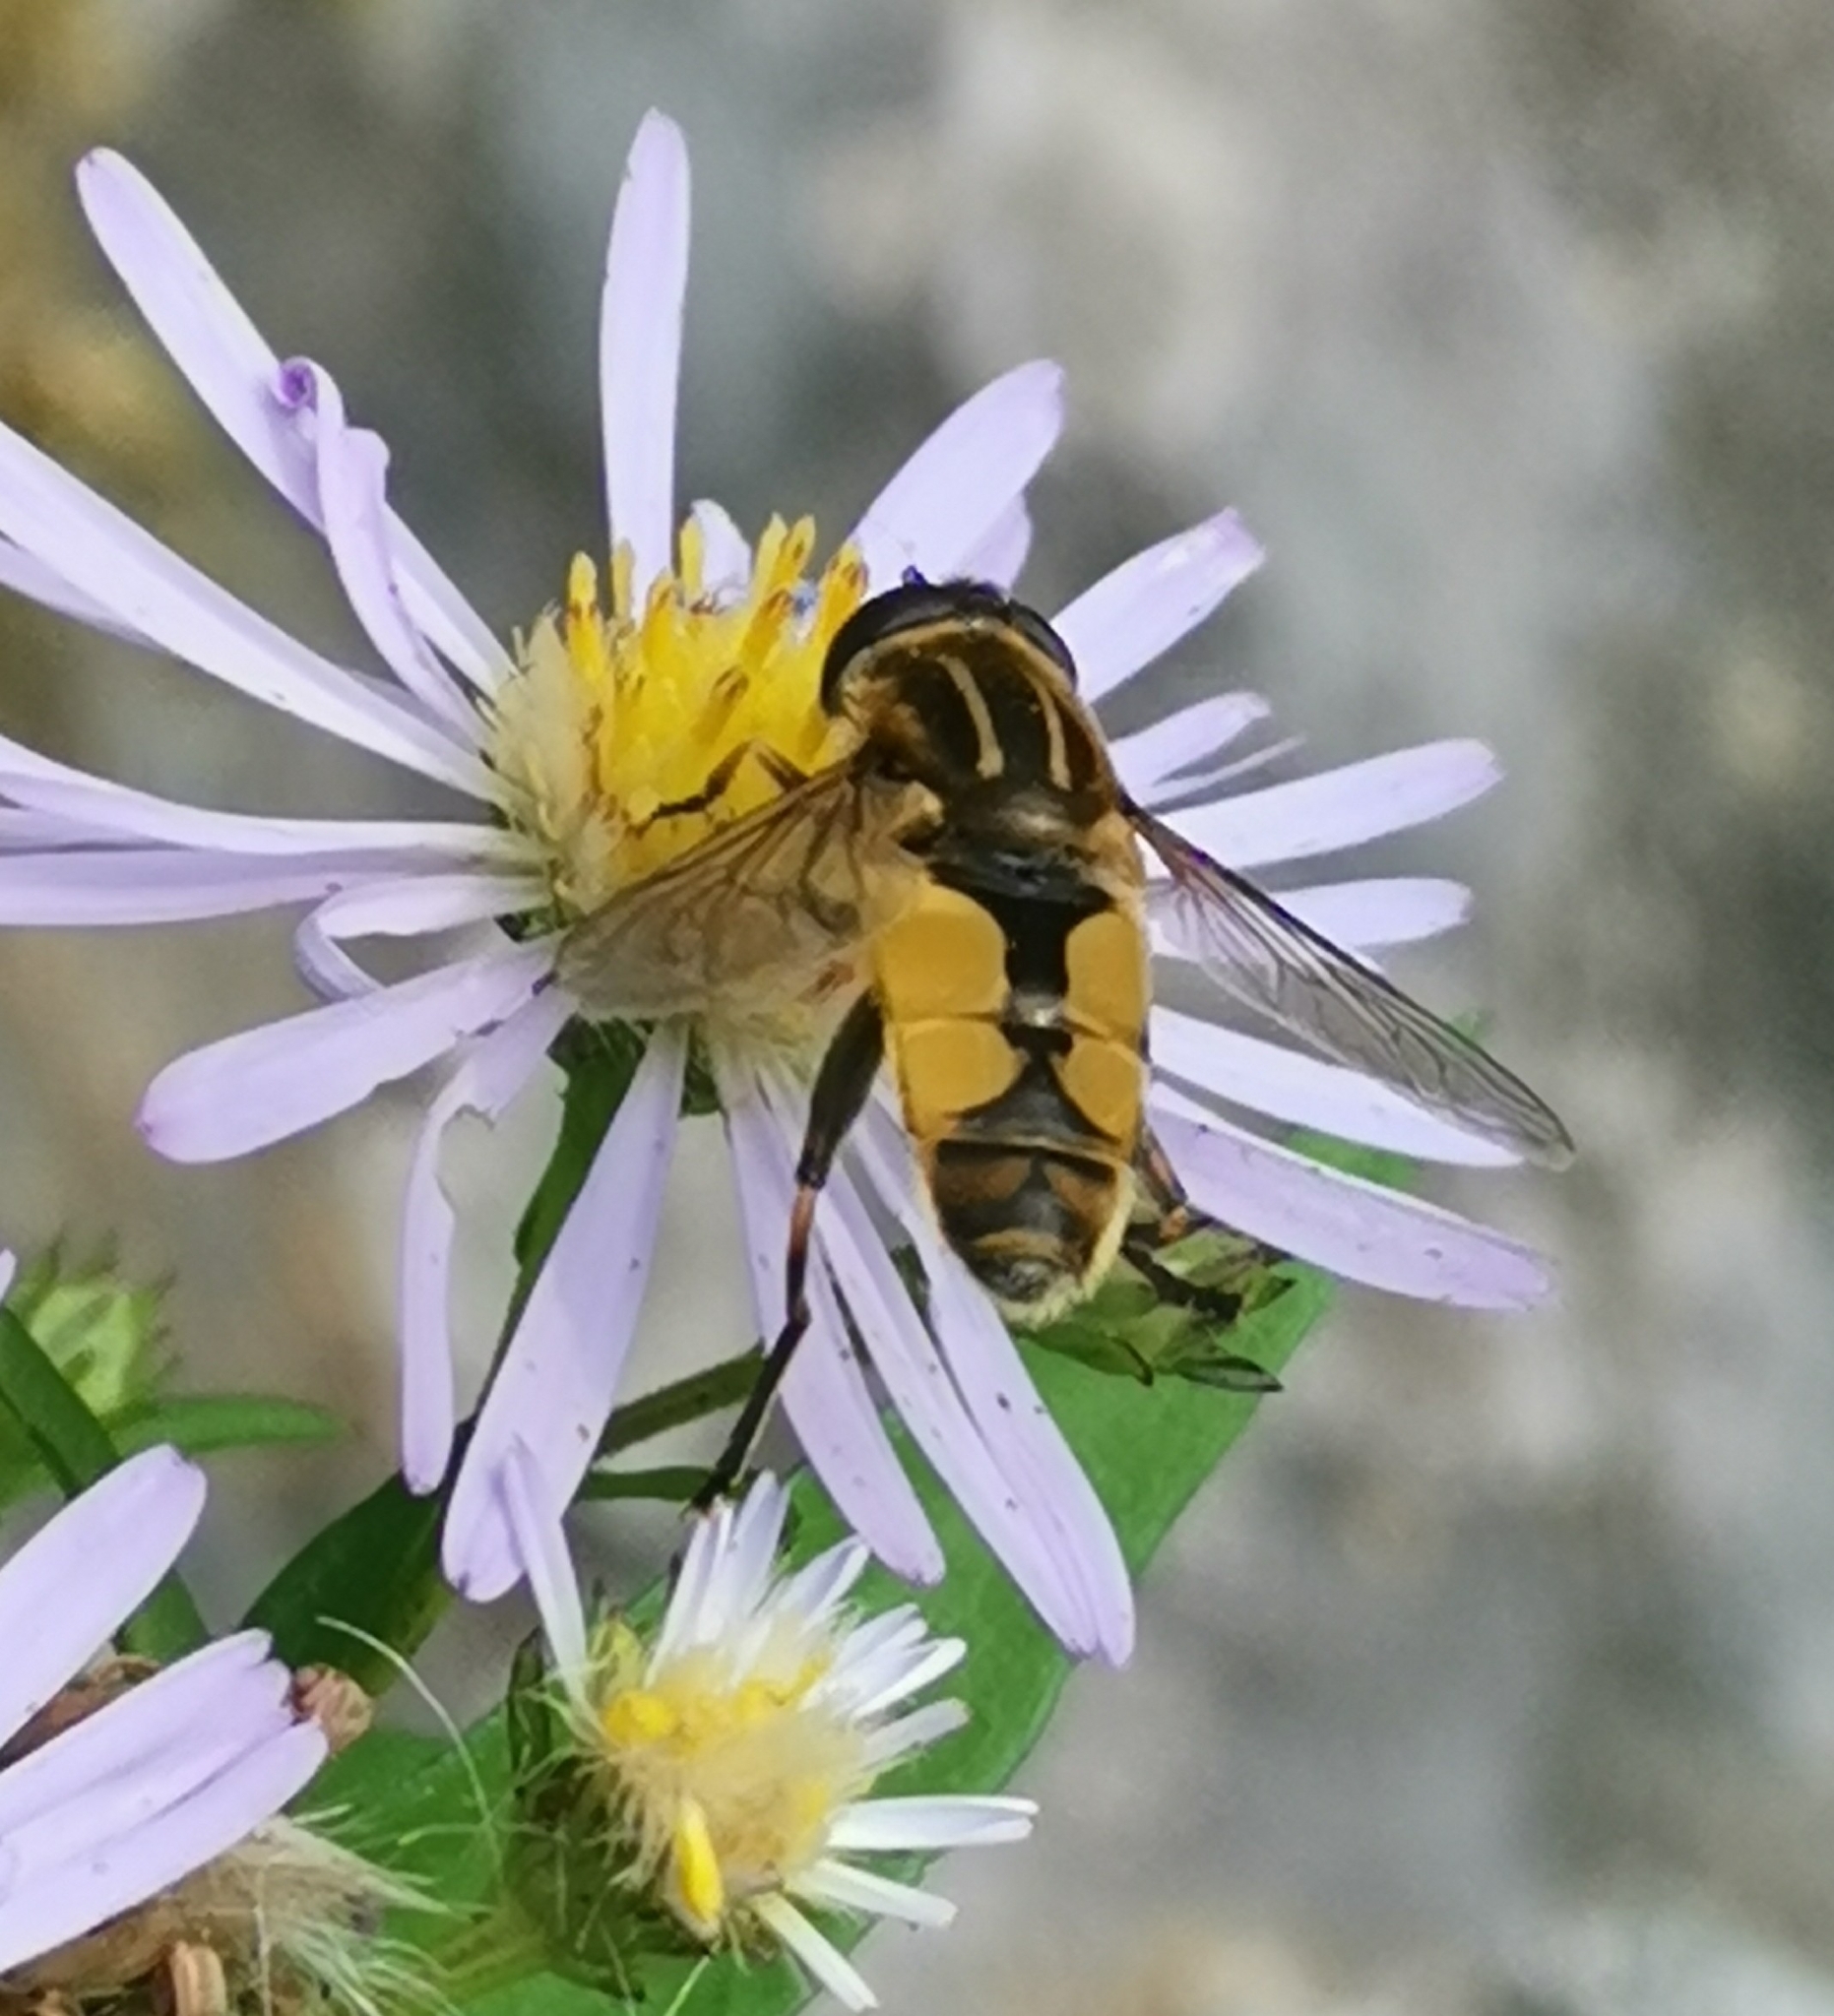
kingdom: Animalia
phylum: Arthropoda
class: Insecta
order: Diptera
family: Syrphidae
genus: Helophilus
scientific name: Helophilus hybridus
